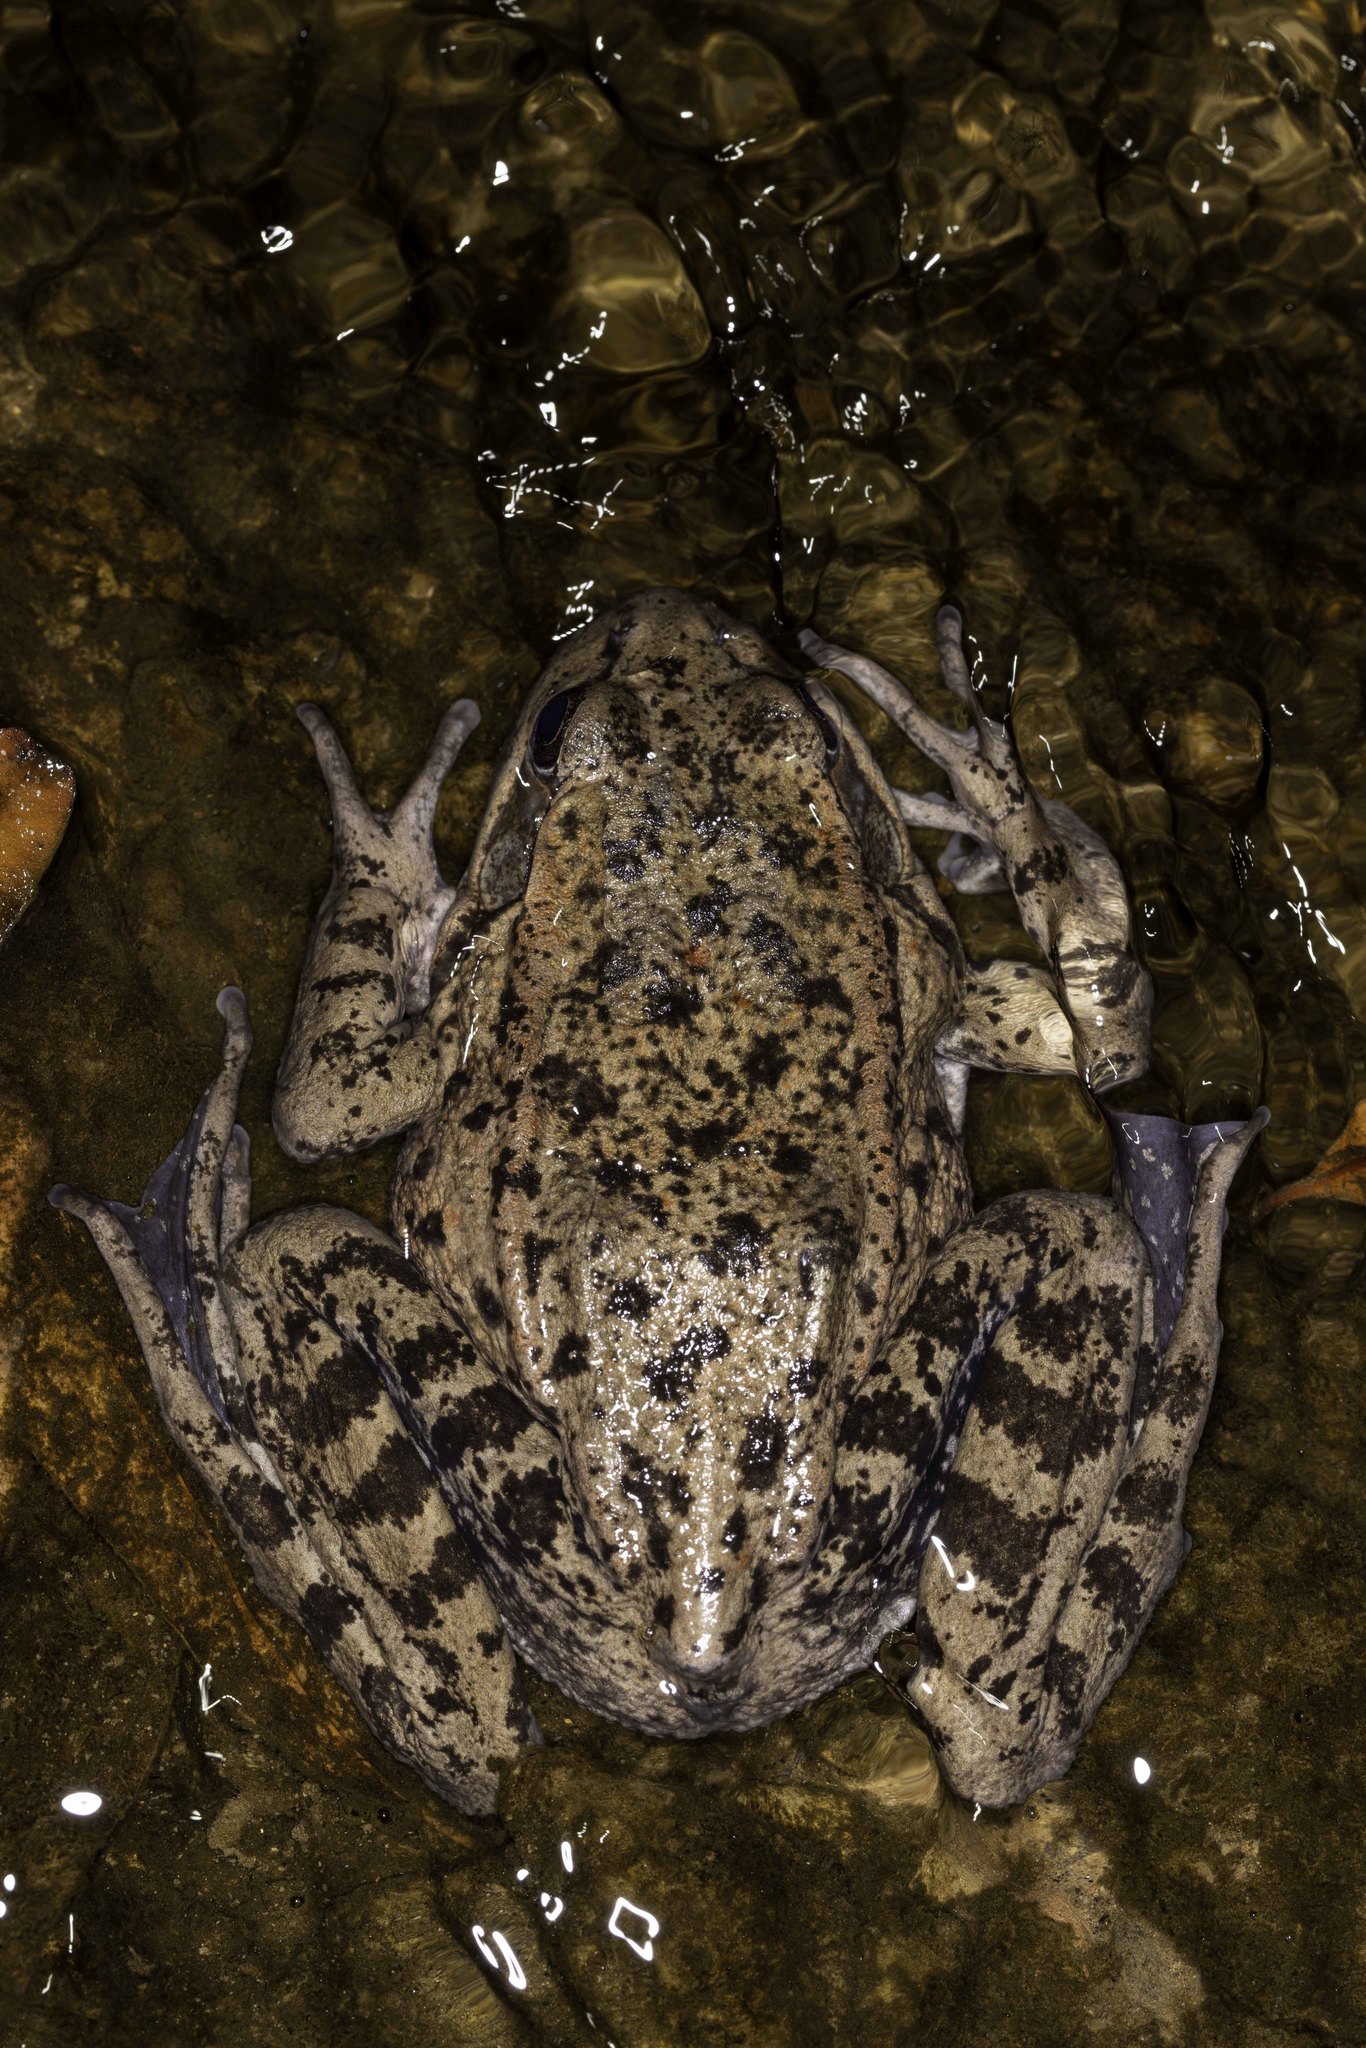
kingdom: Animalia
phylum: Chordata
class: Amphibia
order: Anura
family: Ranidae
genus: Rana
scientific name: Rana draytonii
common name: California red-legged frog
